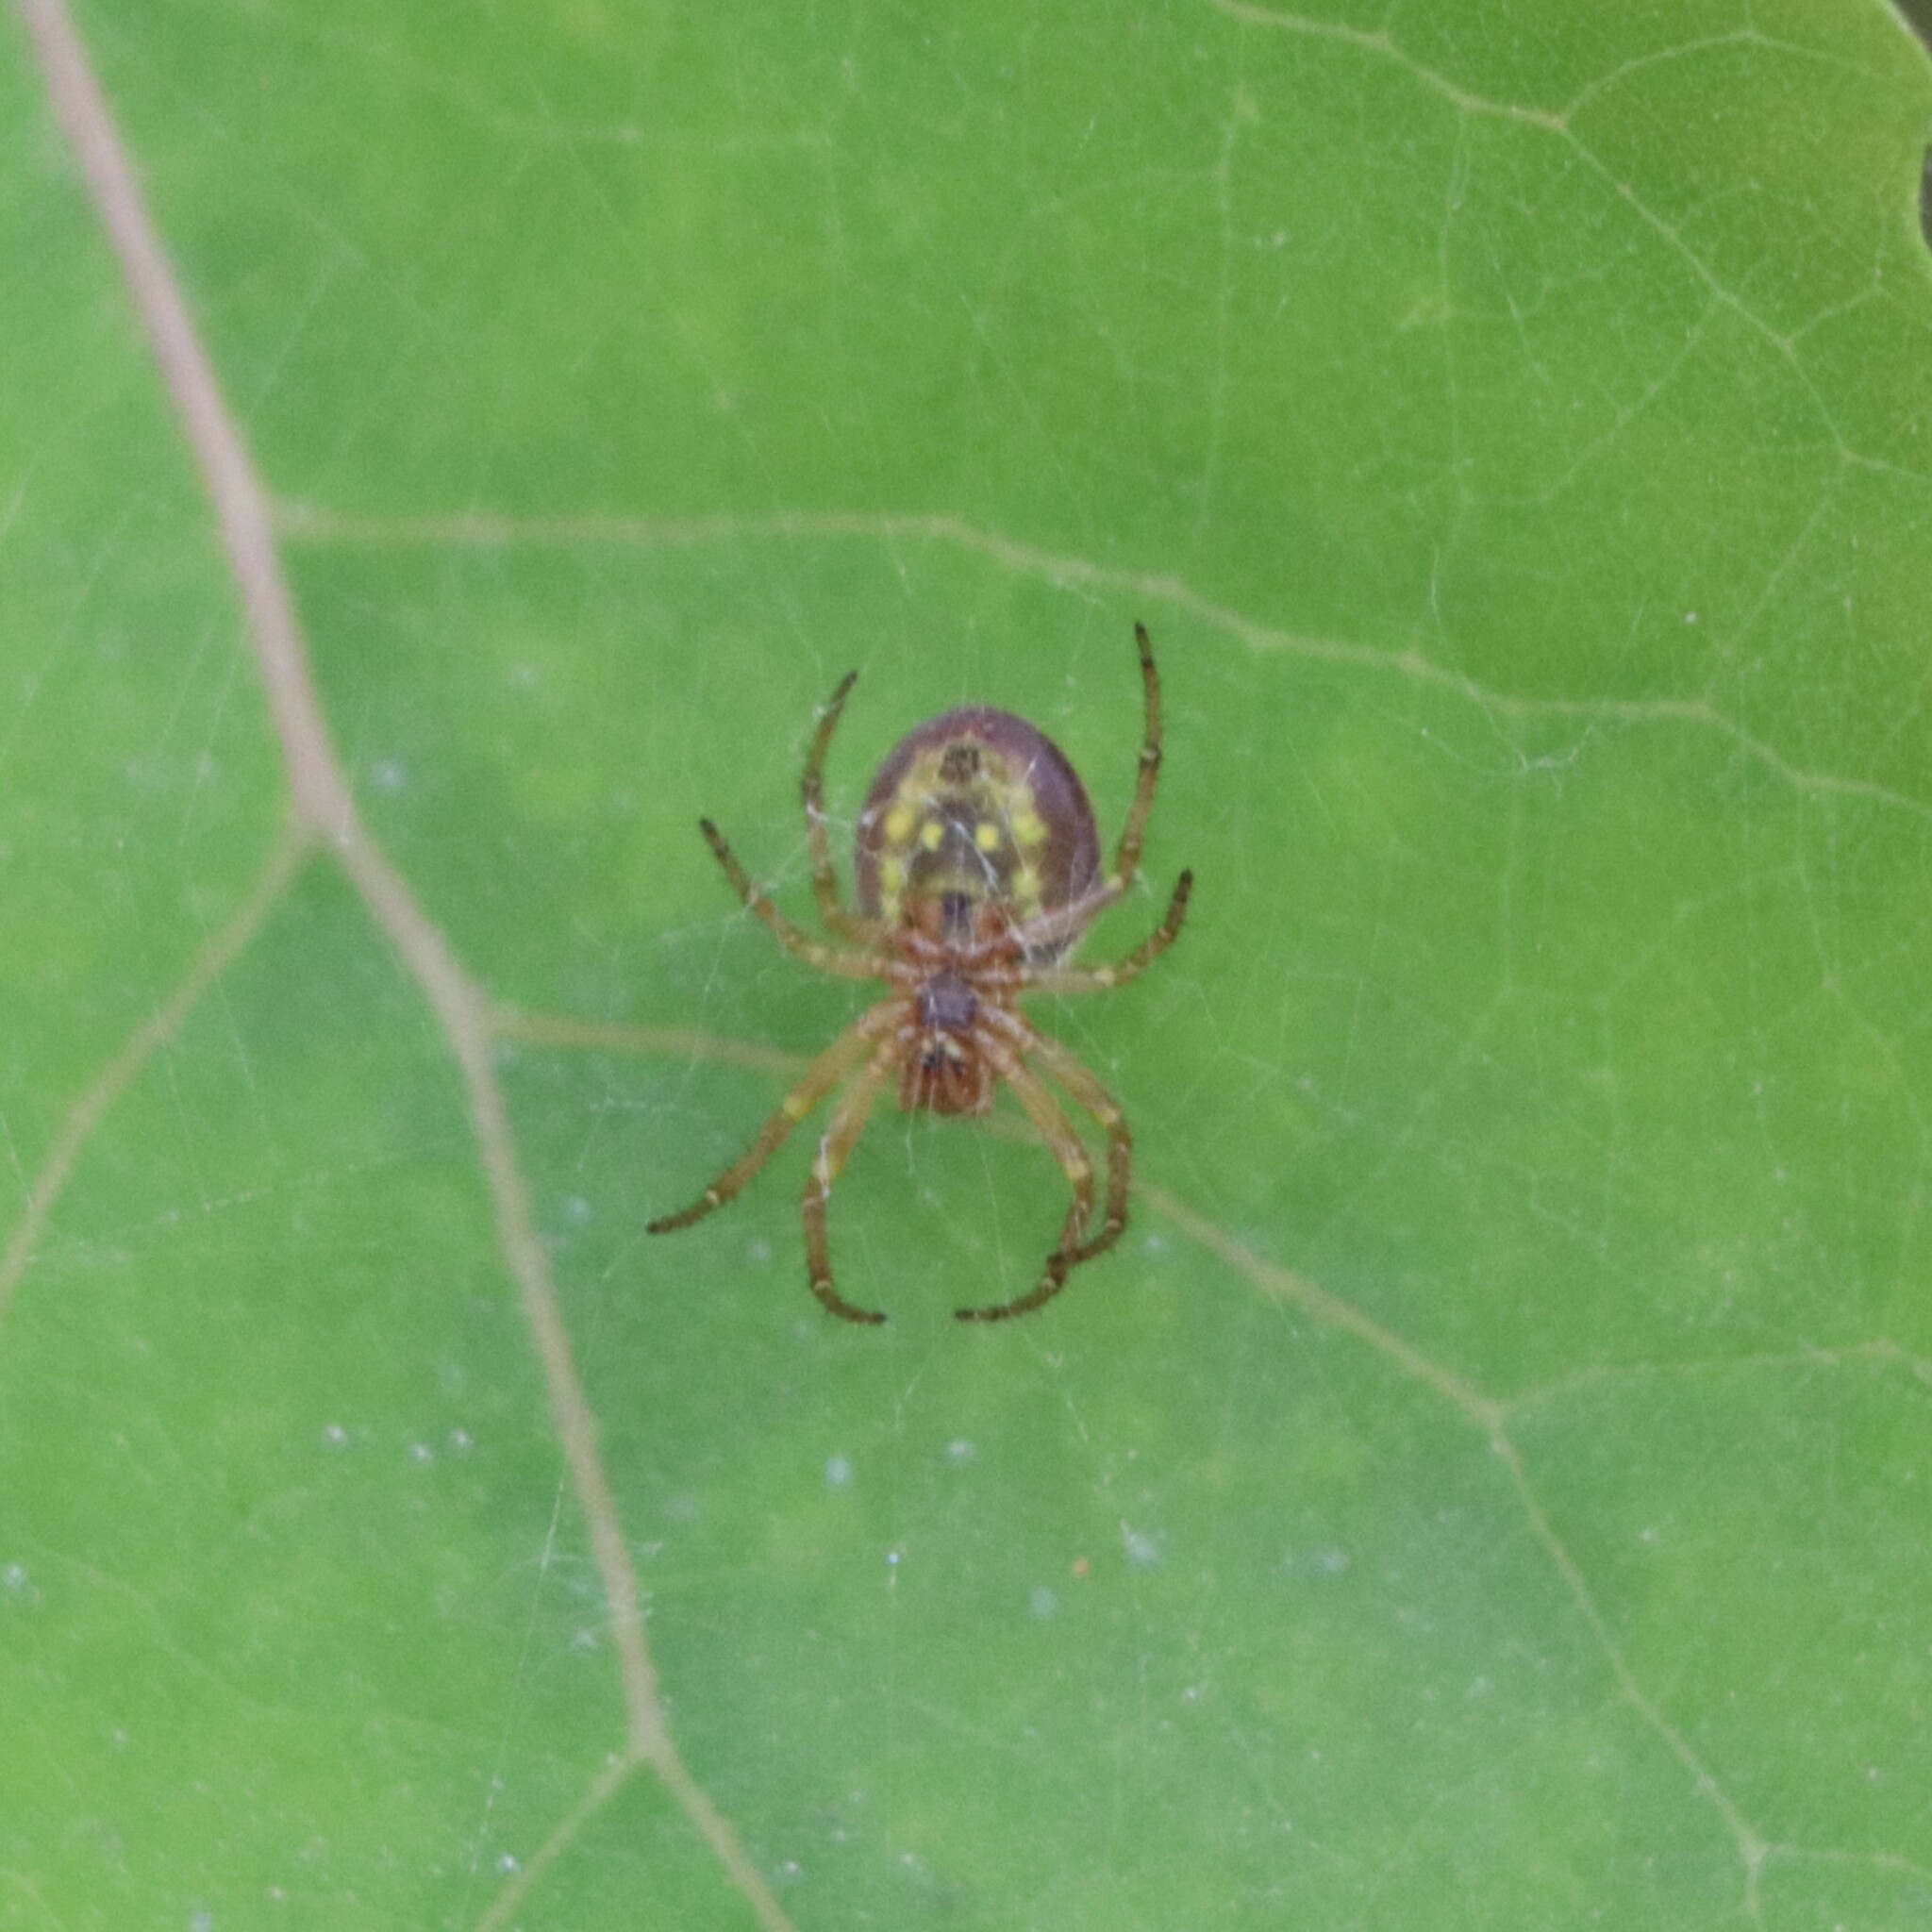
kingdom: Animalia
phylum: Arthropoda
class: Arachnida
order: Araneae
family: Araneidae
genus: Araniella
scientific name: Araniella displicata
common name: Sixspotted orb weaver
